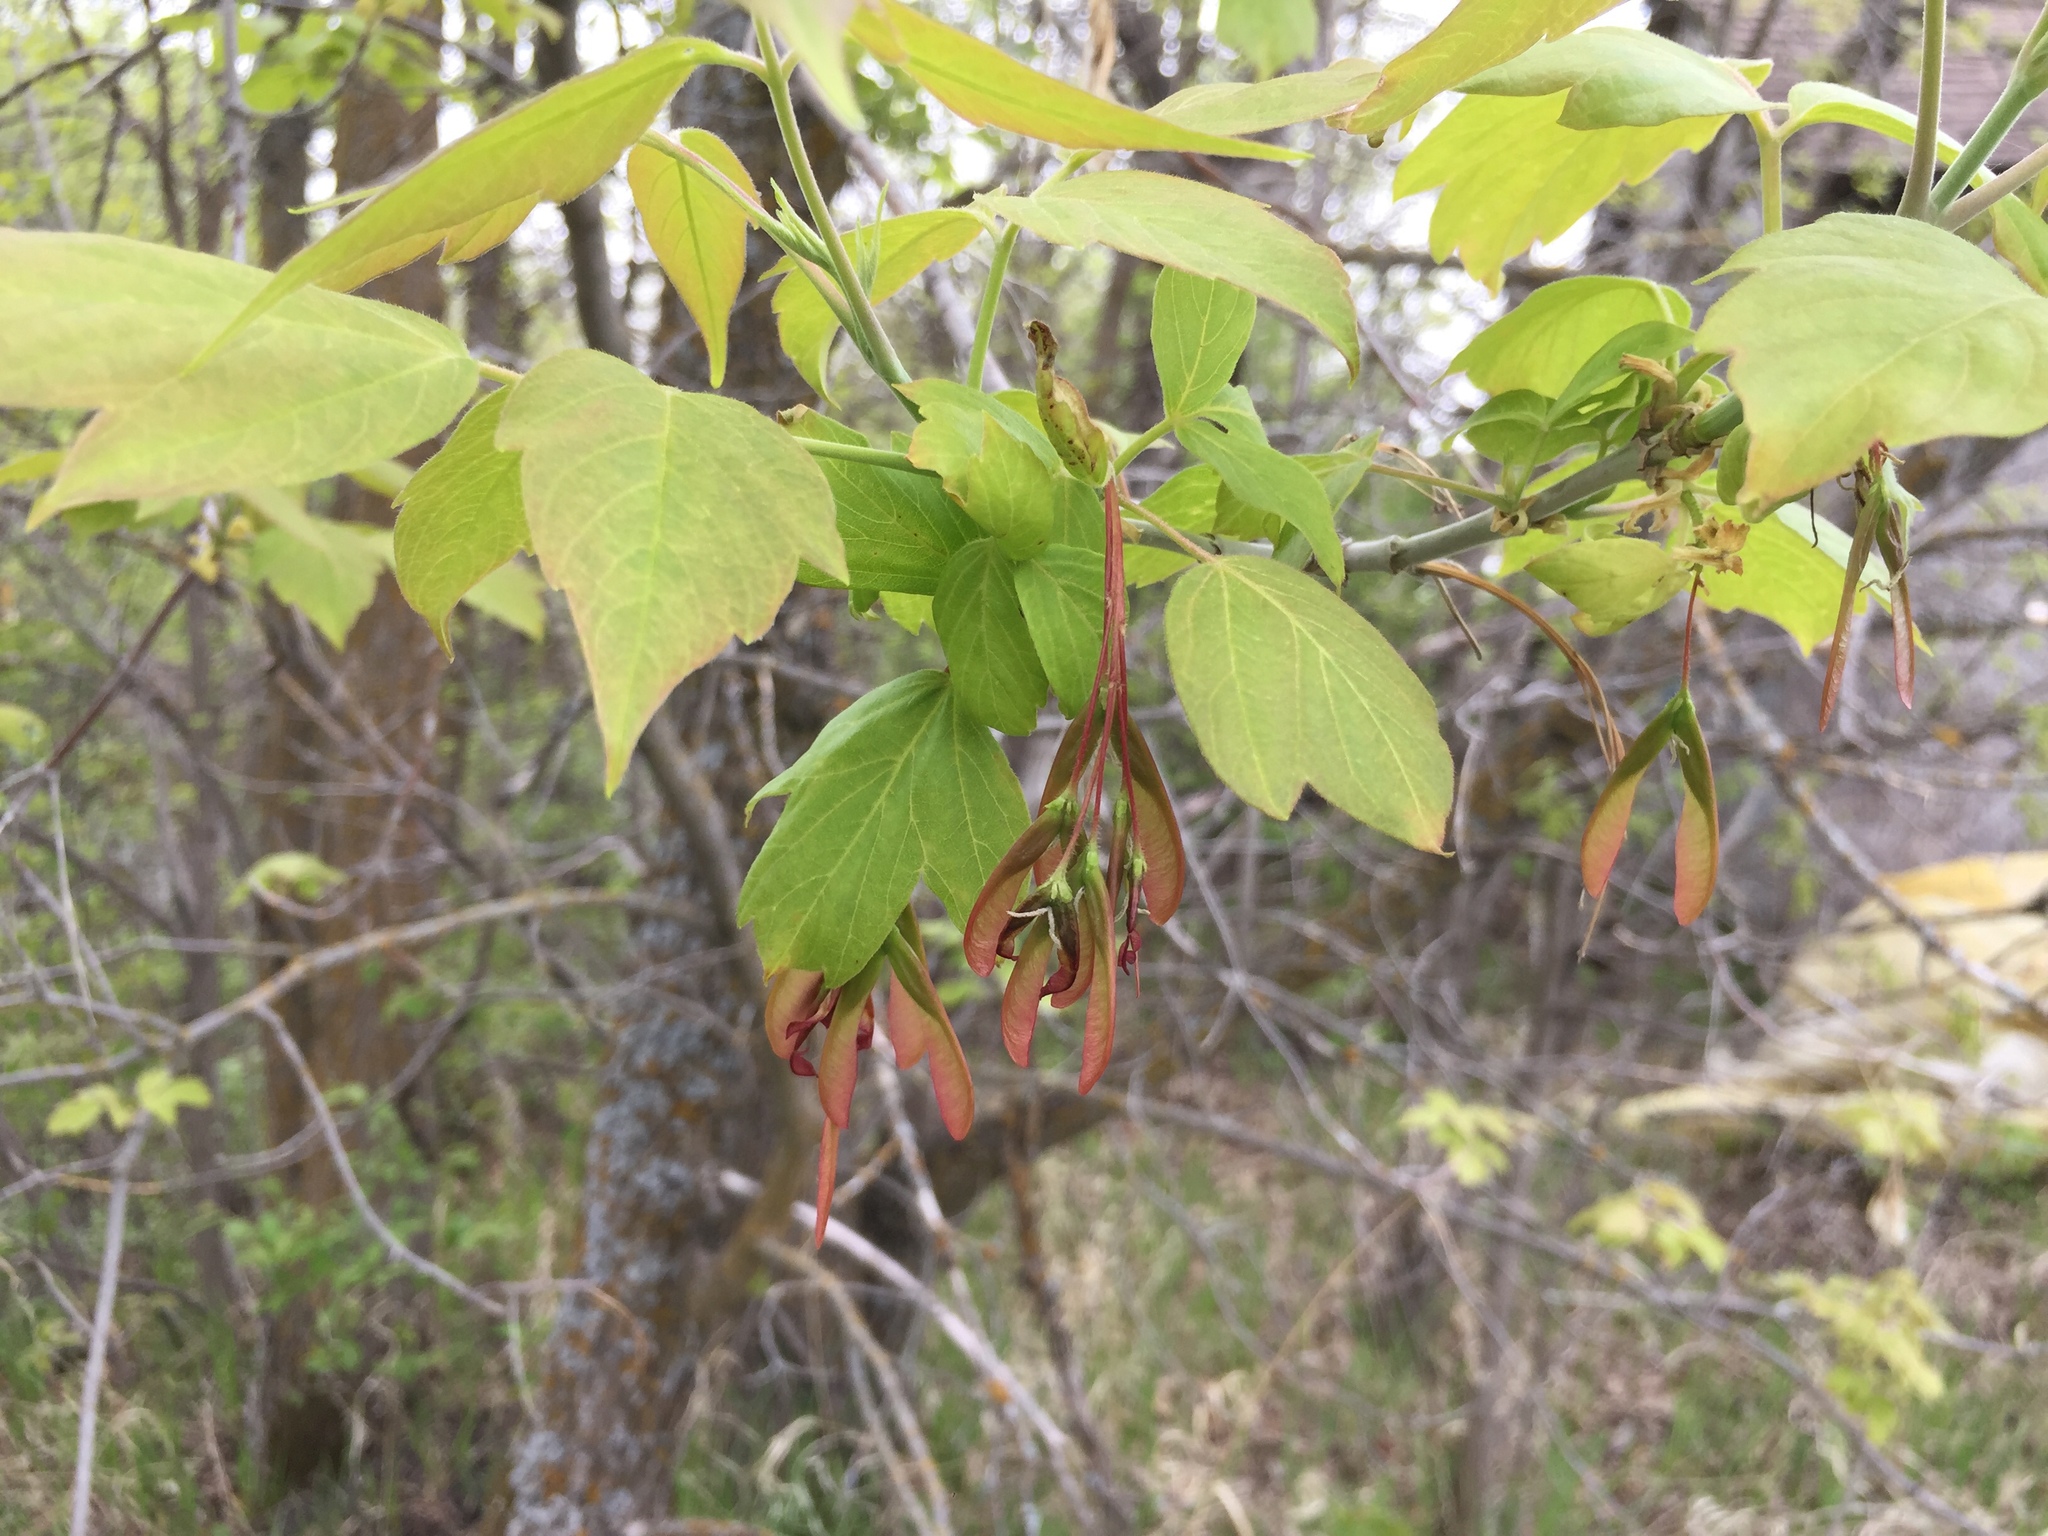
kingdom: Plantae
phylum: Tracheophyta
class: Magnoliopsida
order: Sapindales
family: Sapindaceae
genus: Acer
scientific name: Acer negundo
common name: Ashleaf maple
